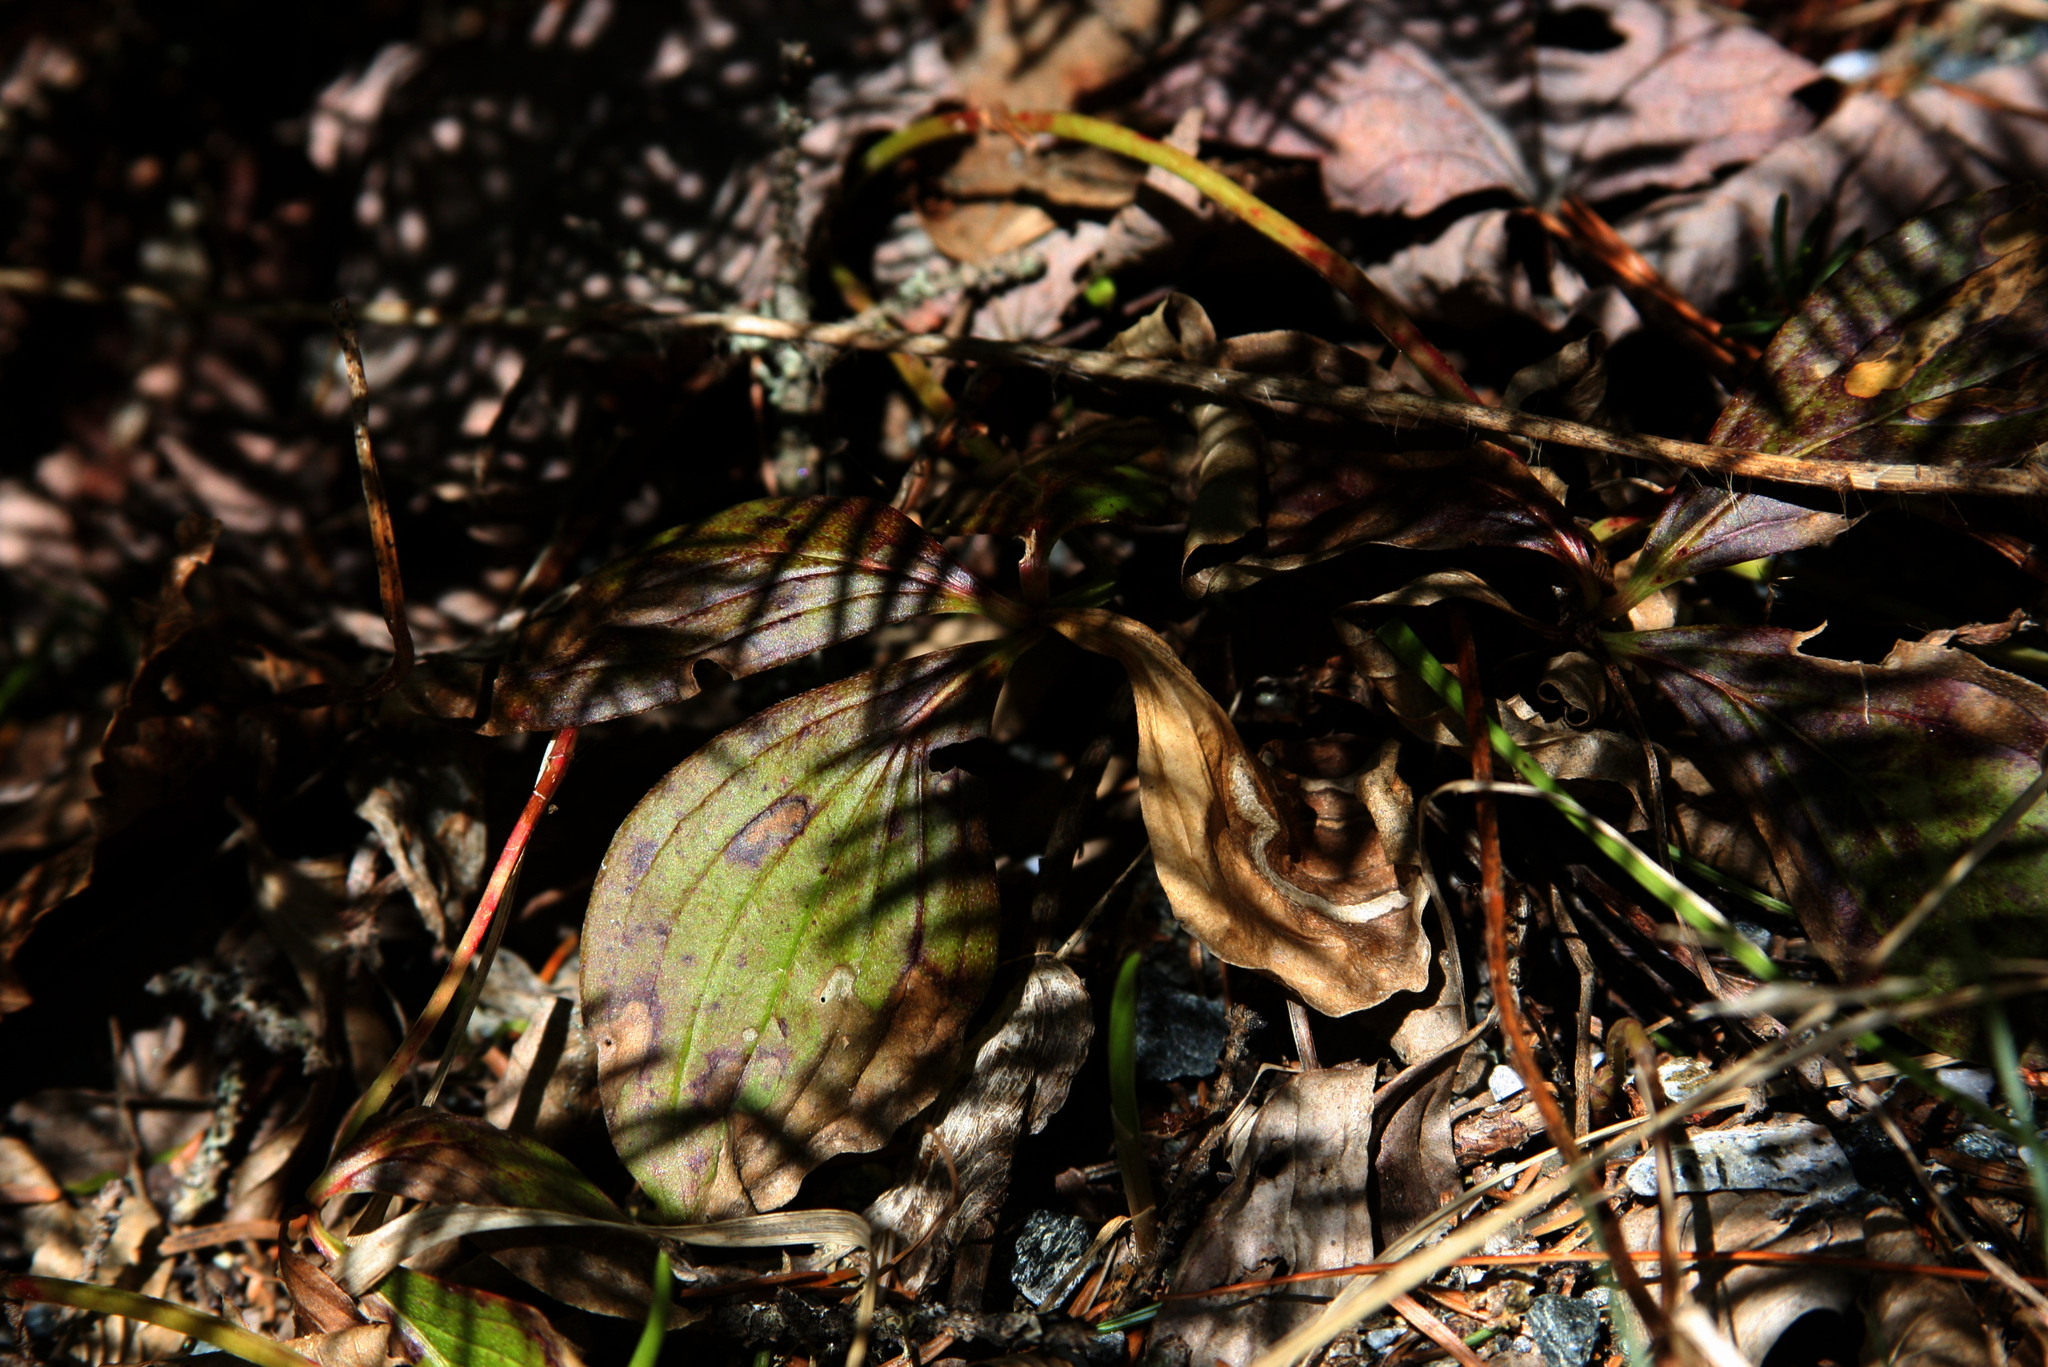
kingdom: Plantae
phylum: Tracheophyta
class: Magnoliopsida
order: Cornales
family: Cornaceae
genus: Cornus
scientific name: Cornus canadensis
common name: Creeping dogwood
